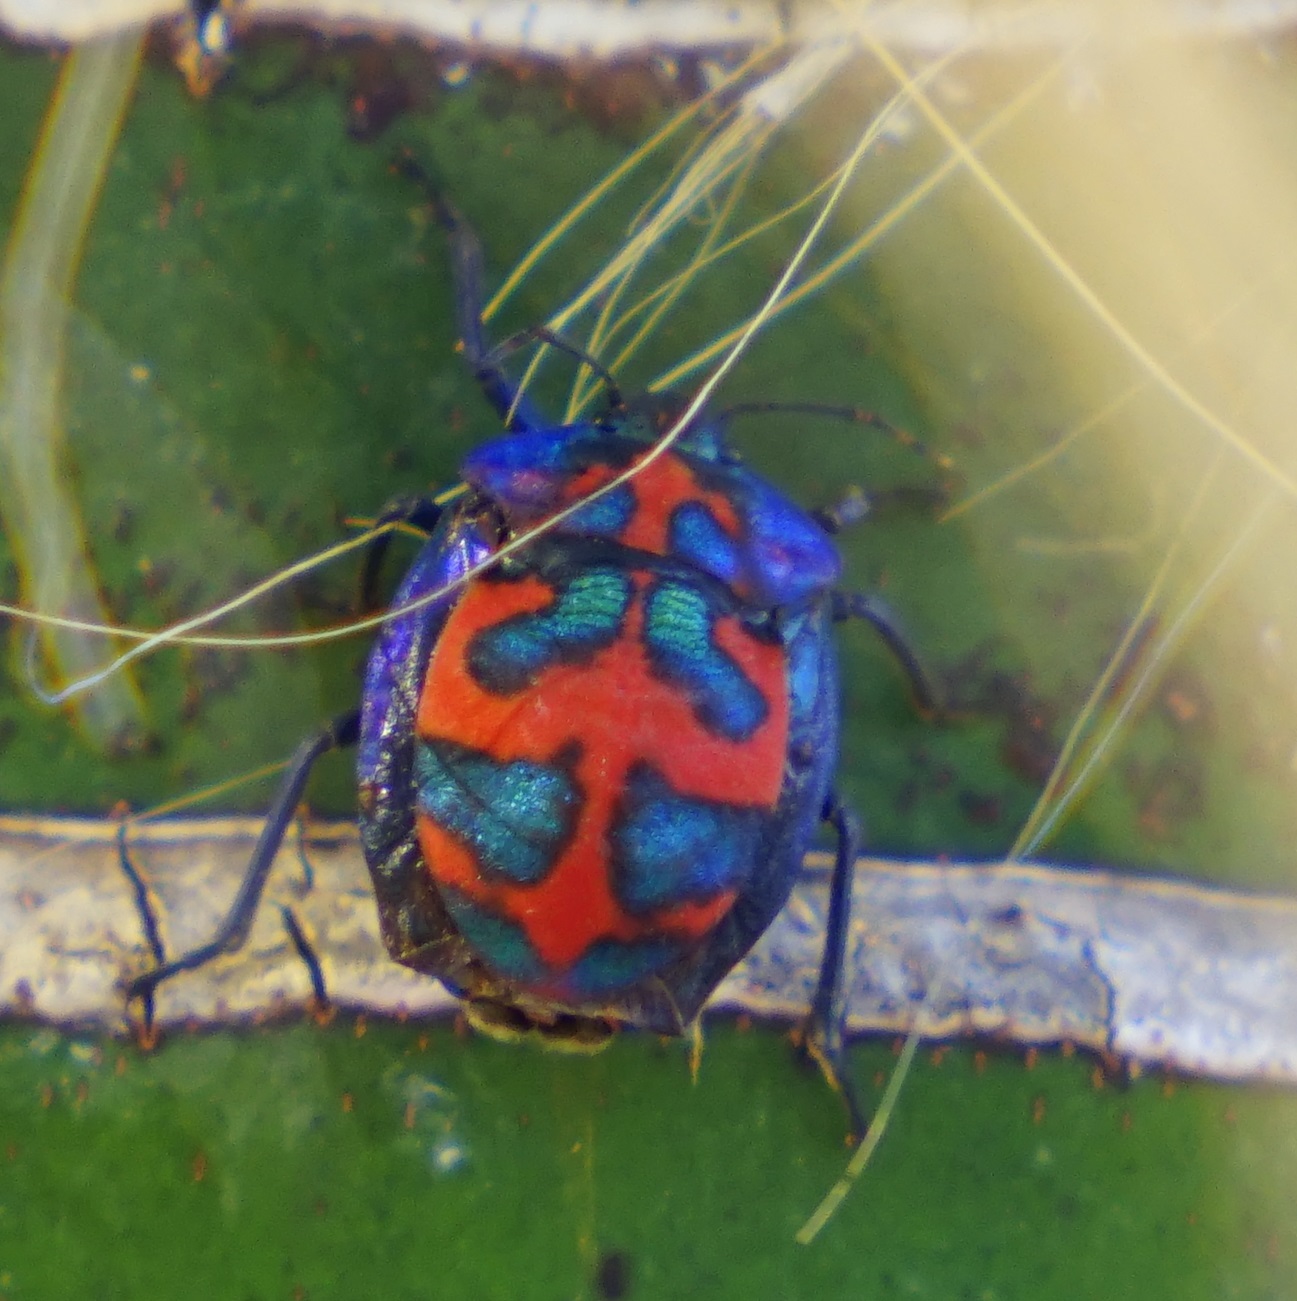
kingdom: Animalia
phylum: Arthropoda
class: Insecta
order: Hemiptera
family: Scutelleridae
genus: Tectocoris
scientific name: Tectocoris diophthalmus
